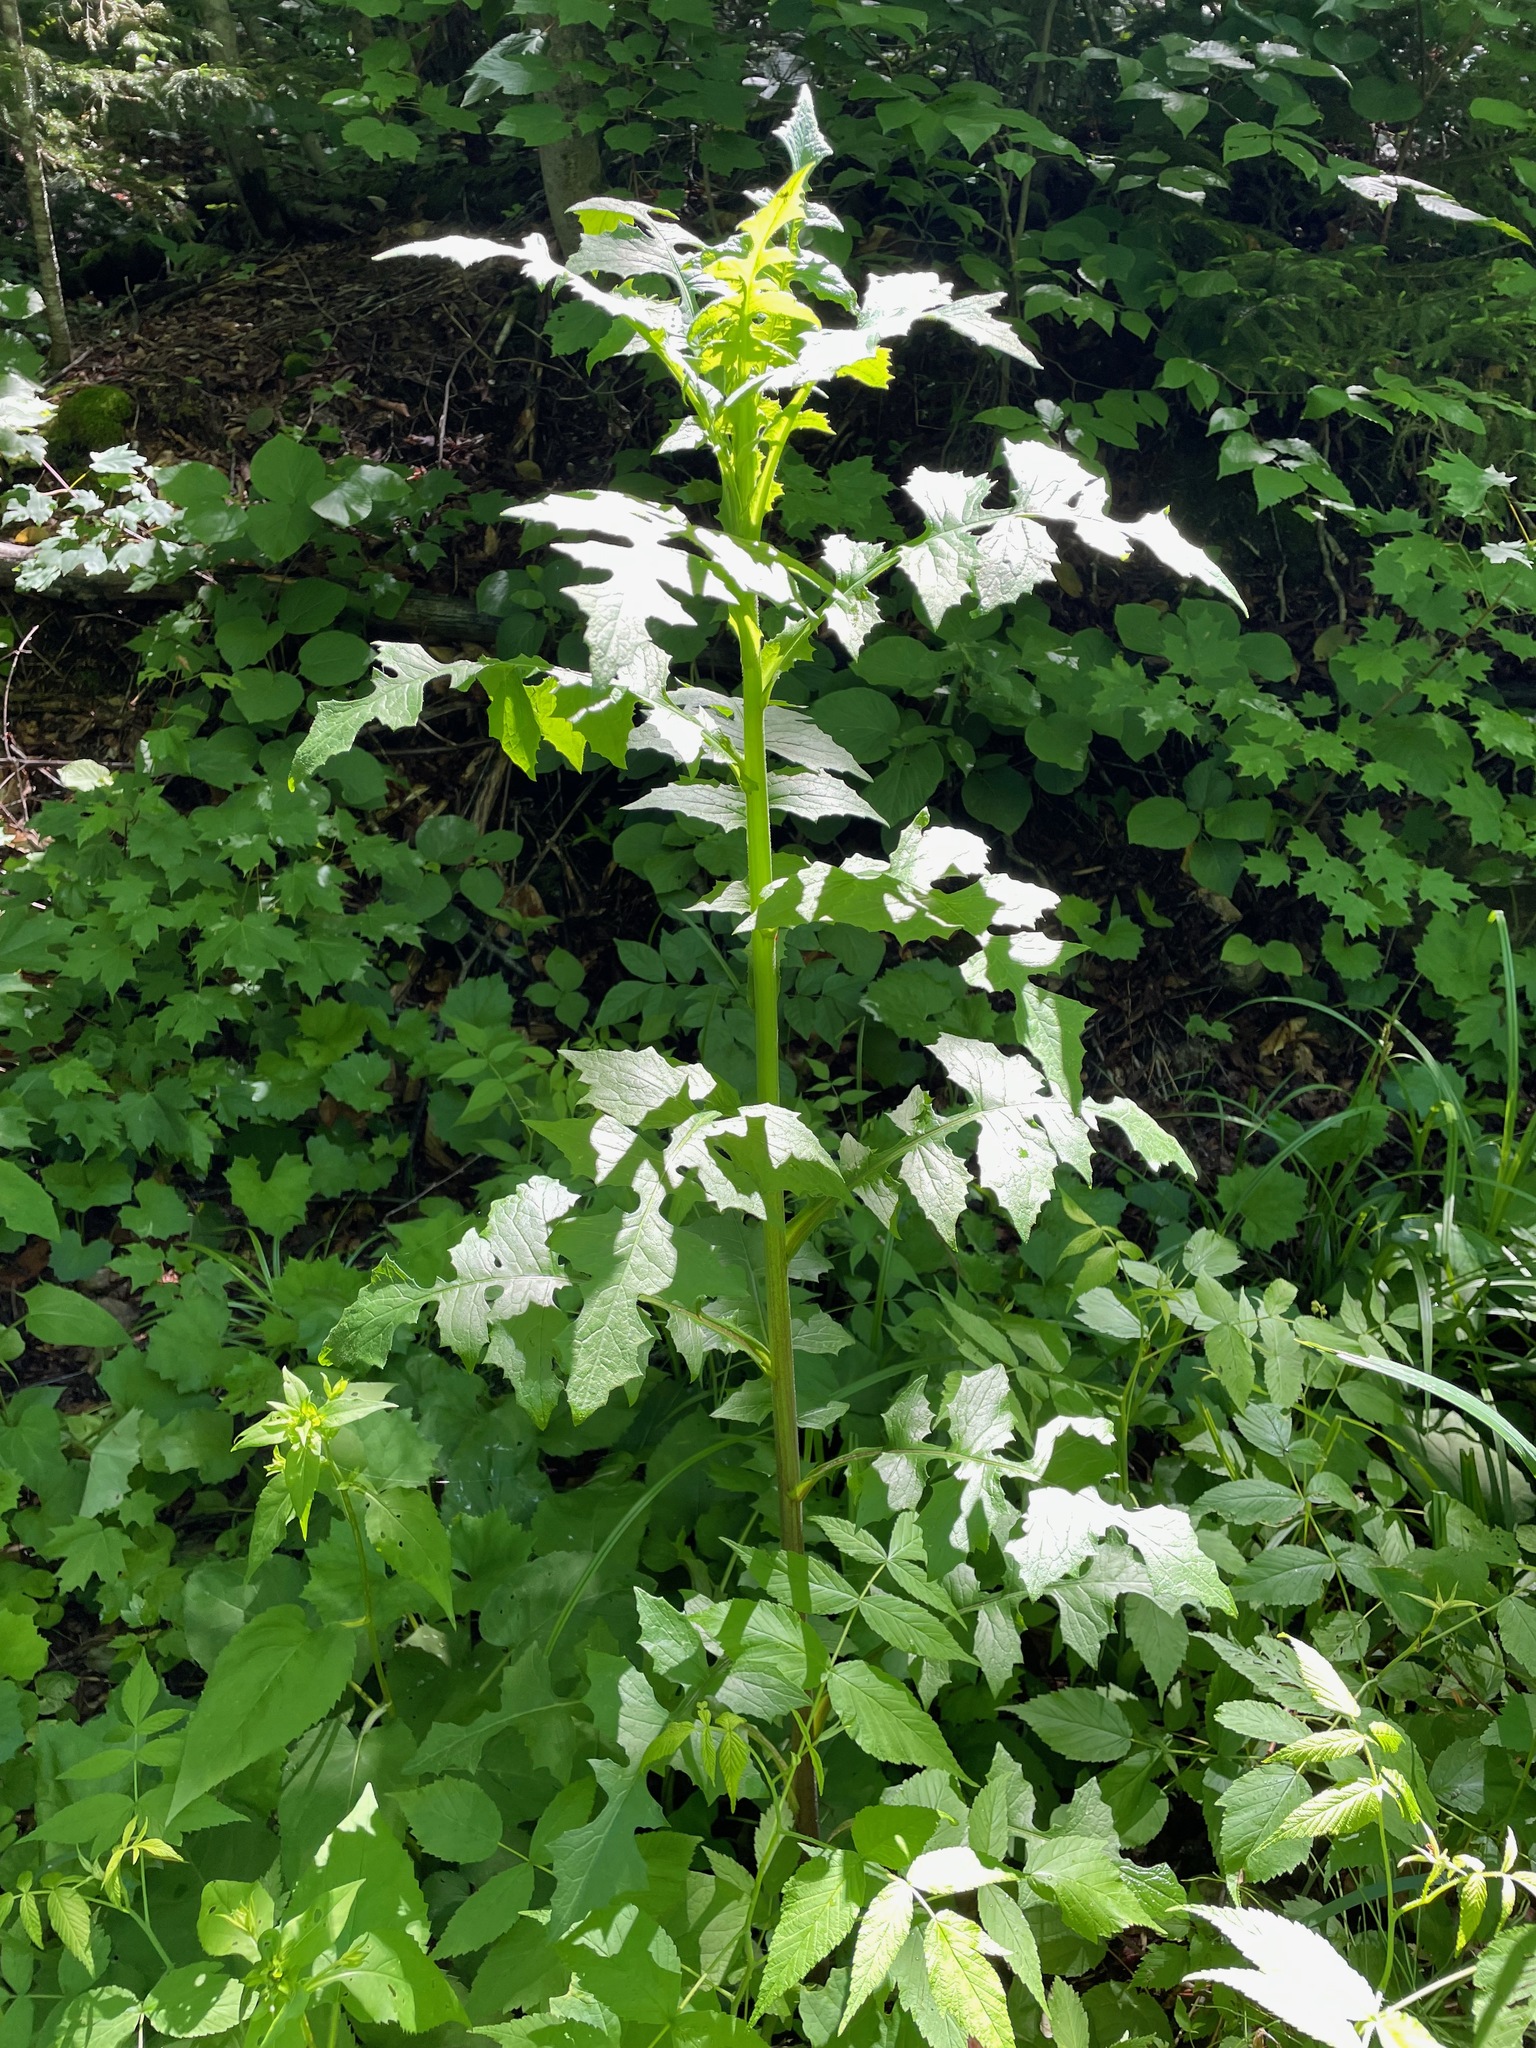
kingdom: Plantae
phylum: Tracheophyta
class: Magnoliopsida
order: Asterales
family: Asteraceae
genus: Lactuca
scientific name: Lactuca biennis
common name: Blue wood lettuce
